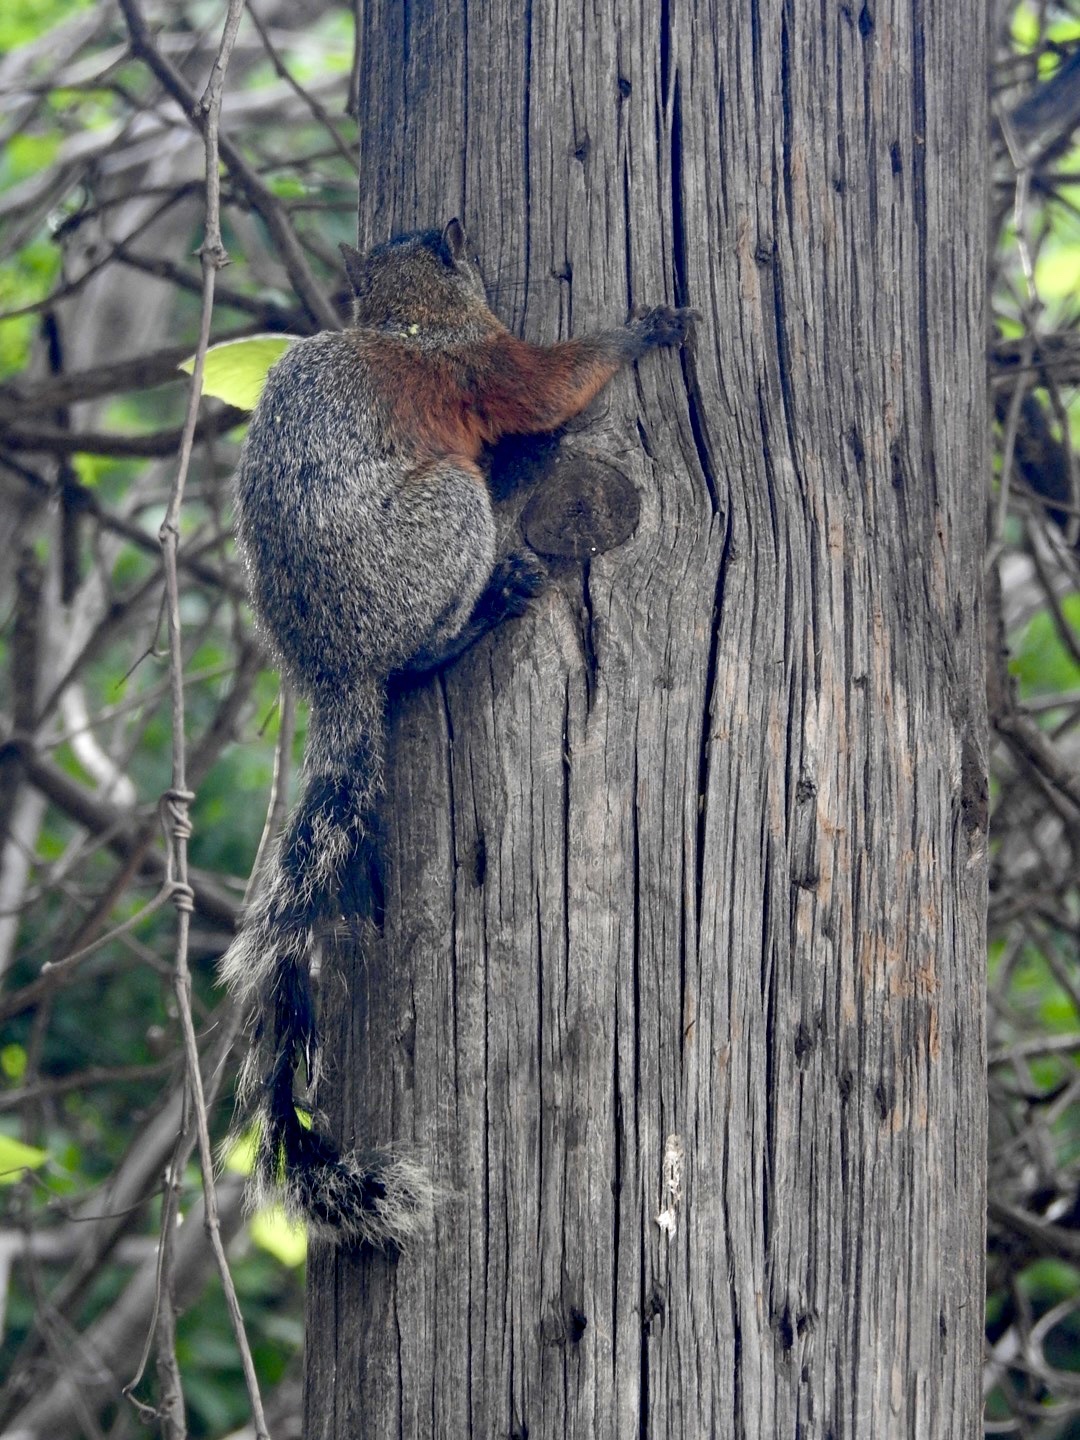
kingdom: Animalia
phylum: Chordata
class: Mammalia
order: Rodentia
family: Sciuridae
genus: Sciurus
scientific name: Sciurus aureogaster
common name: Red-bellied squirrel
